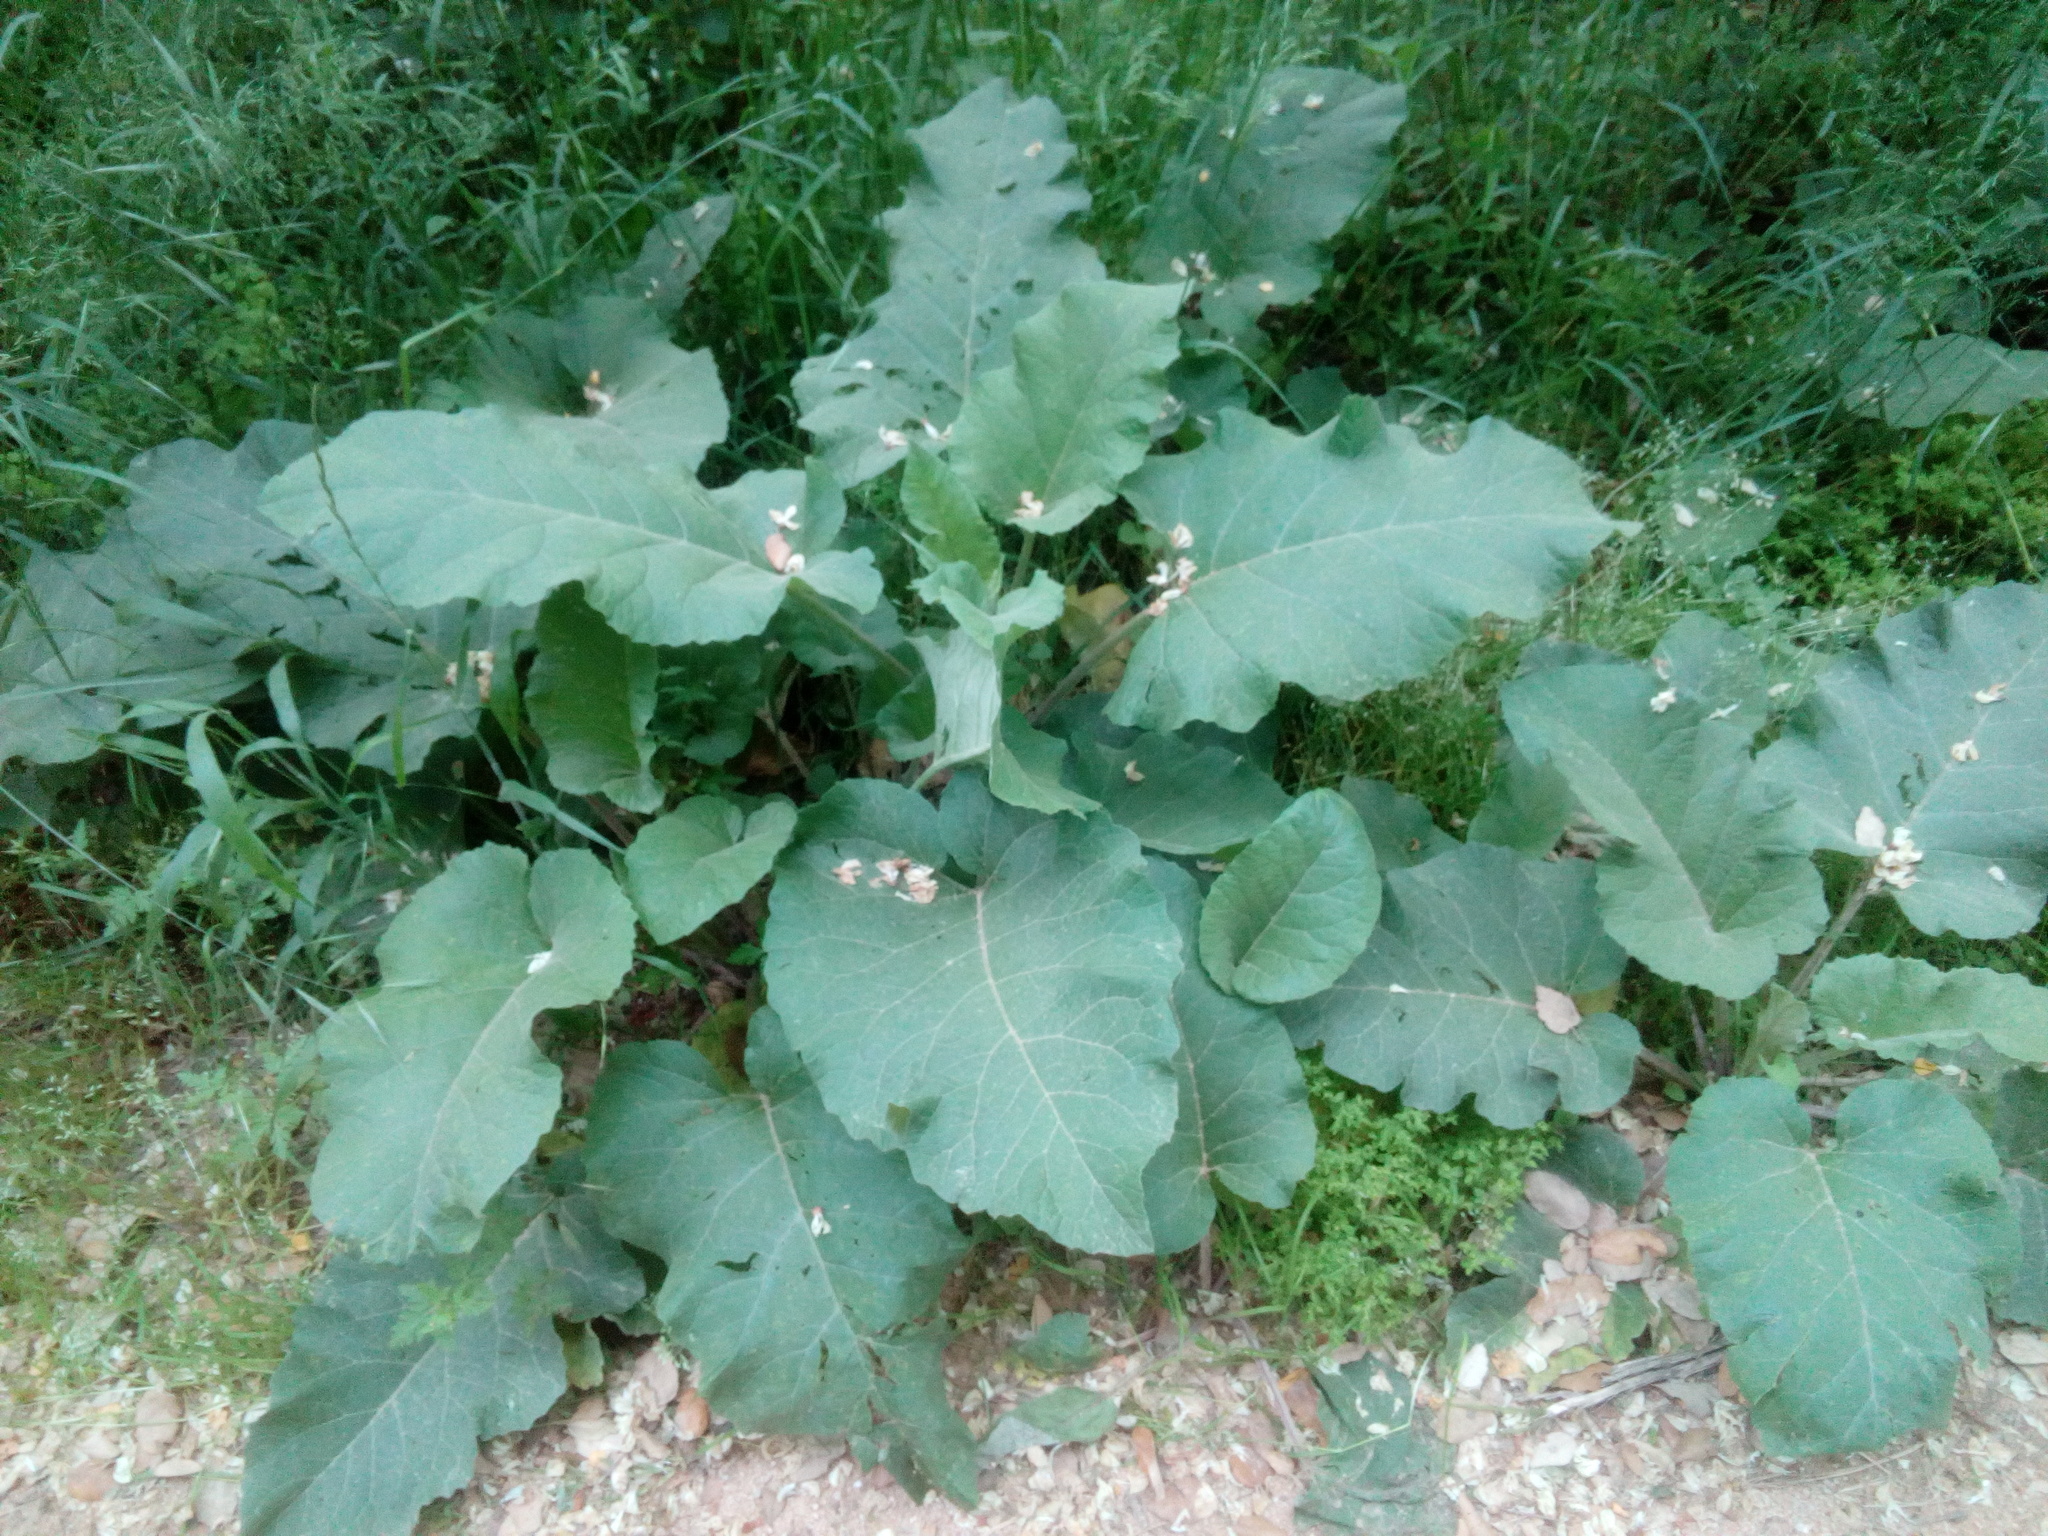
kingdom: Plantae
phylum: Tracheophyta
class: Magnoliopsida
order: Asterales
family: Asteraceae
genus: Arctium
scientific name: Arctium minus
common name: Lesser burdock
